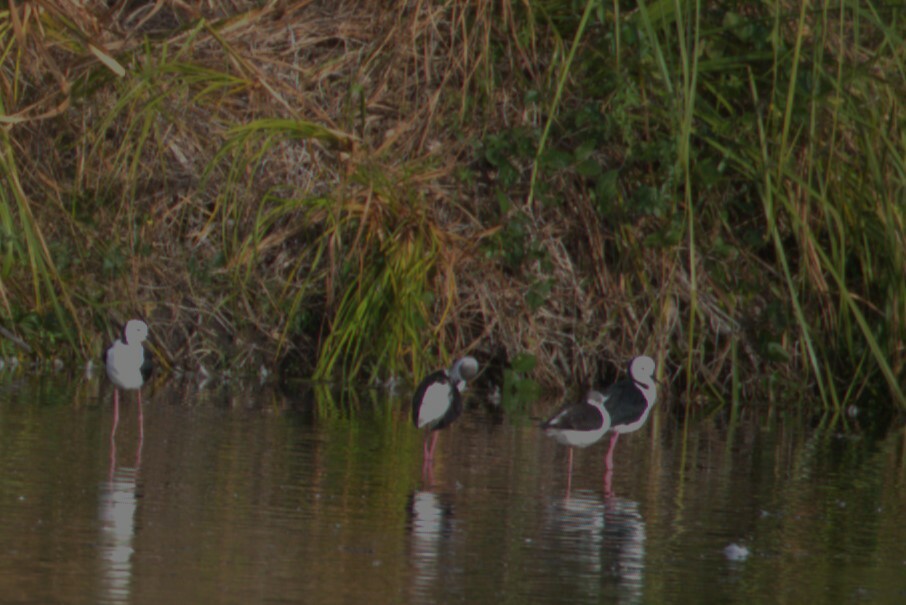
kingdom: Animalia
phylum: Chordata
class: Aves
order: Charadriiformes
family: Recurvirostridae
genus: Himantopus
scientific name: Himantopus leucocephalus
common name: White-headed stilt
